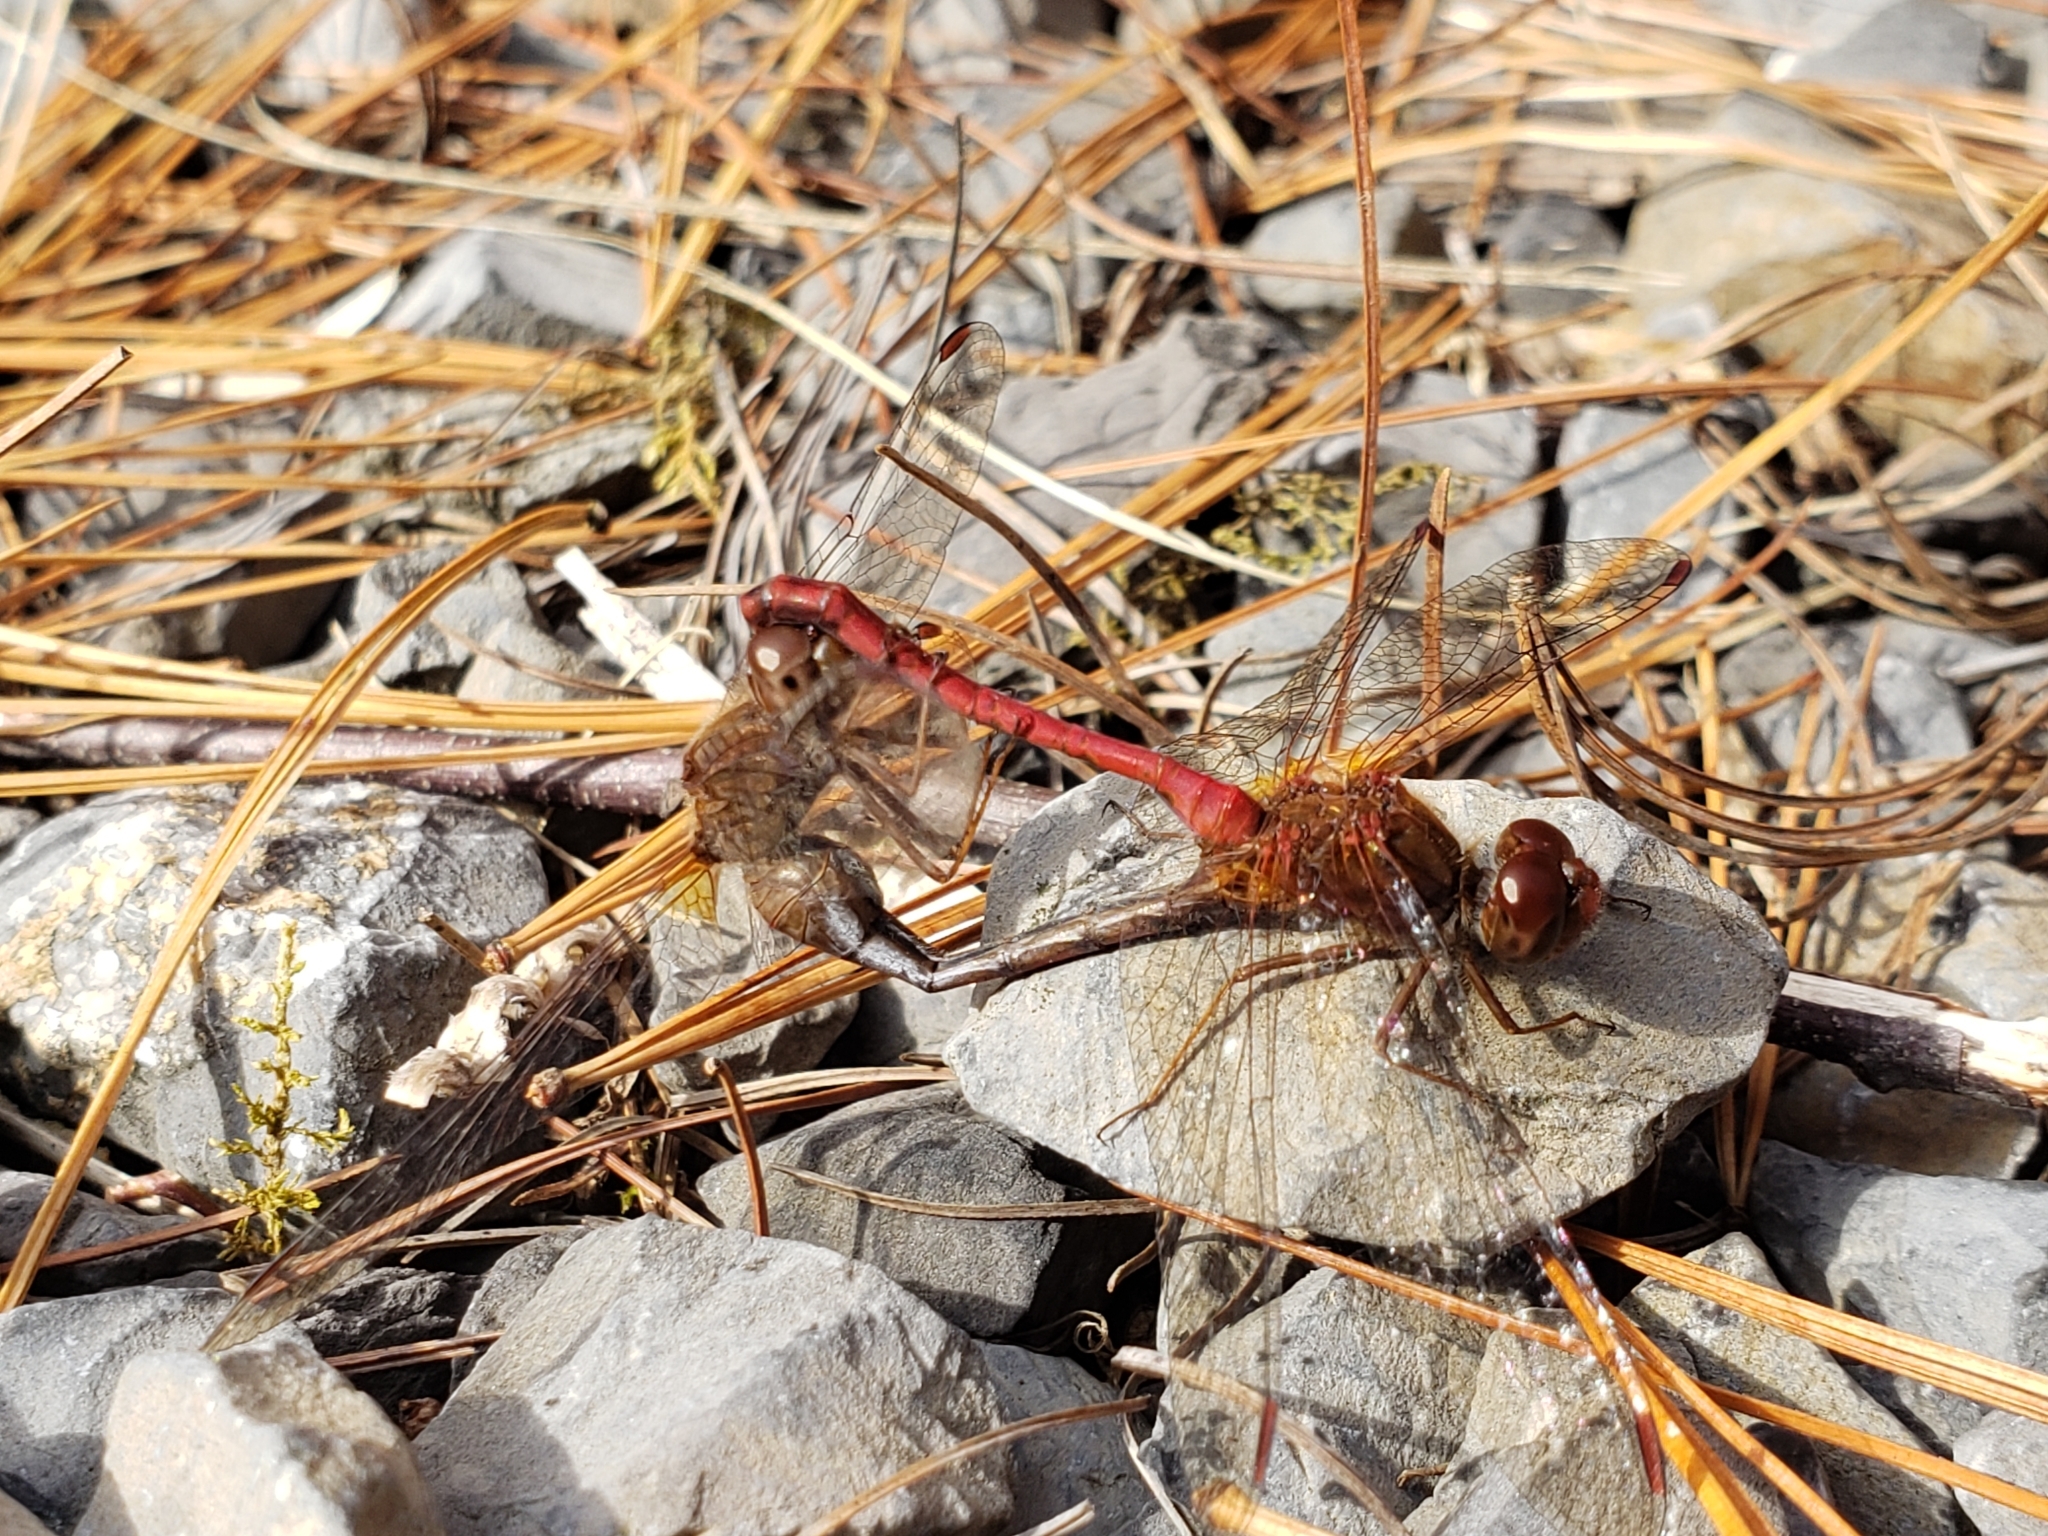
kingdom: Animalia
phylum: Arthropoda
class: Insecta
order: Odonata
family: Libellulidae
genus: Sympetrum
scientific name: Sympetrum vicinum
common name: Autumn meadowhawk
